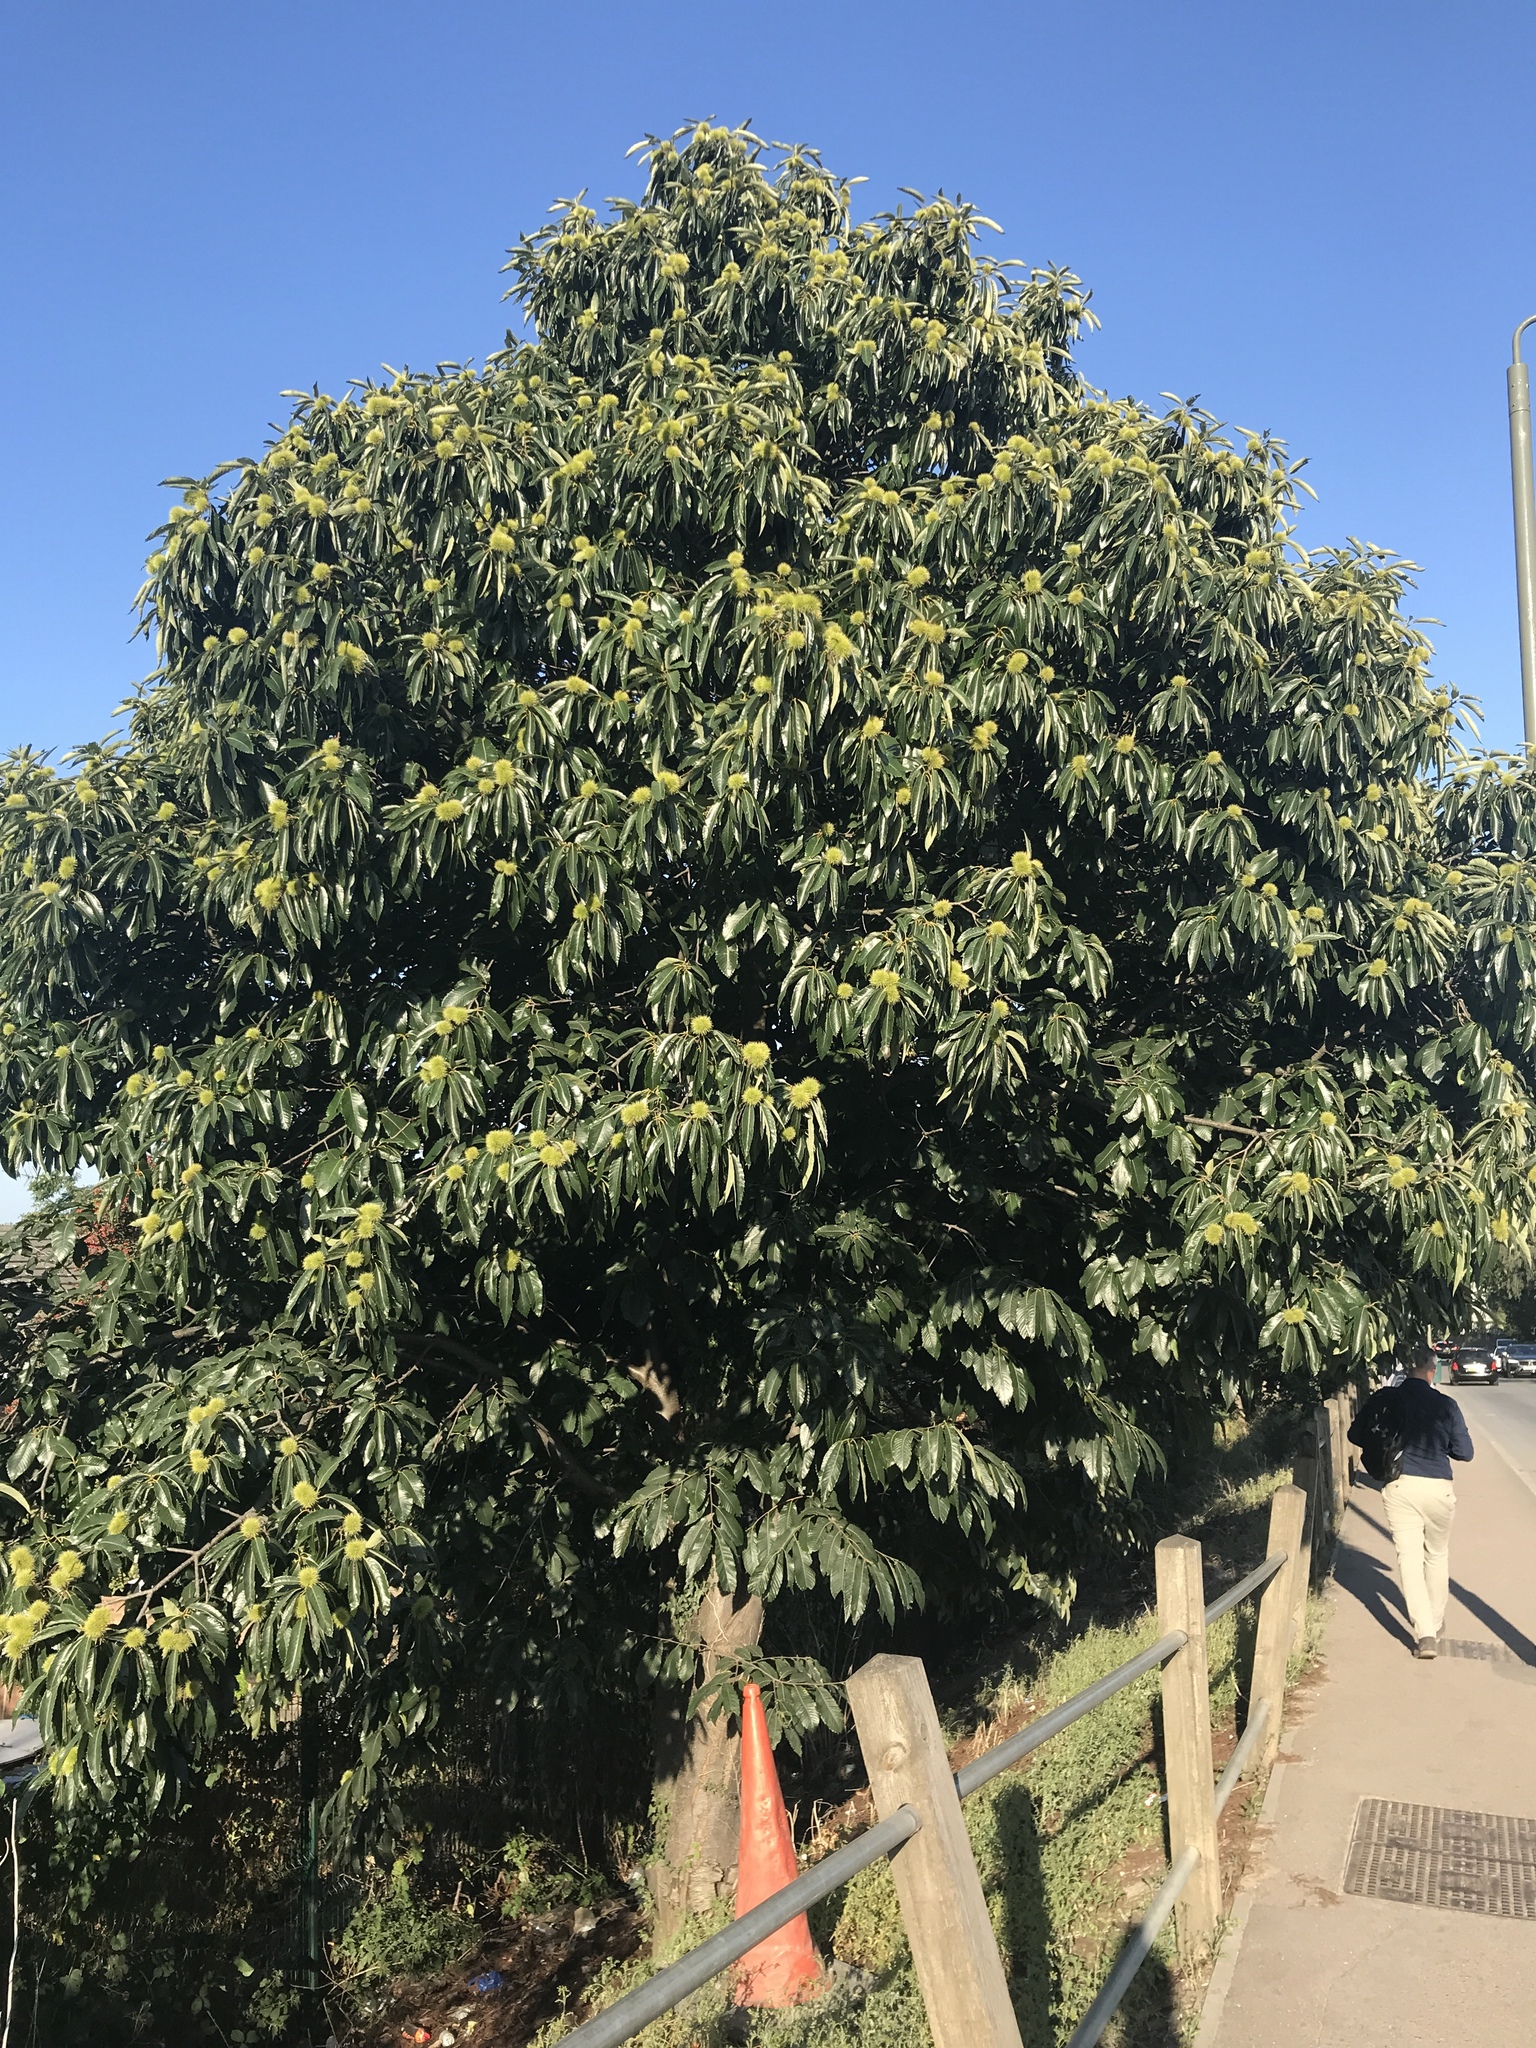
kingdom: Plantae
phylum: Tracheophyta
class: Magnoliopsida
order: Fagales
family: Fagaceae
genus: Castanea
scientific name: Castanea sativa
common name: Sweet chestnut
